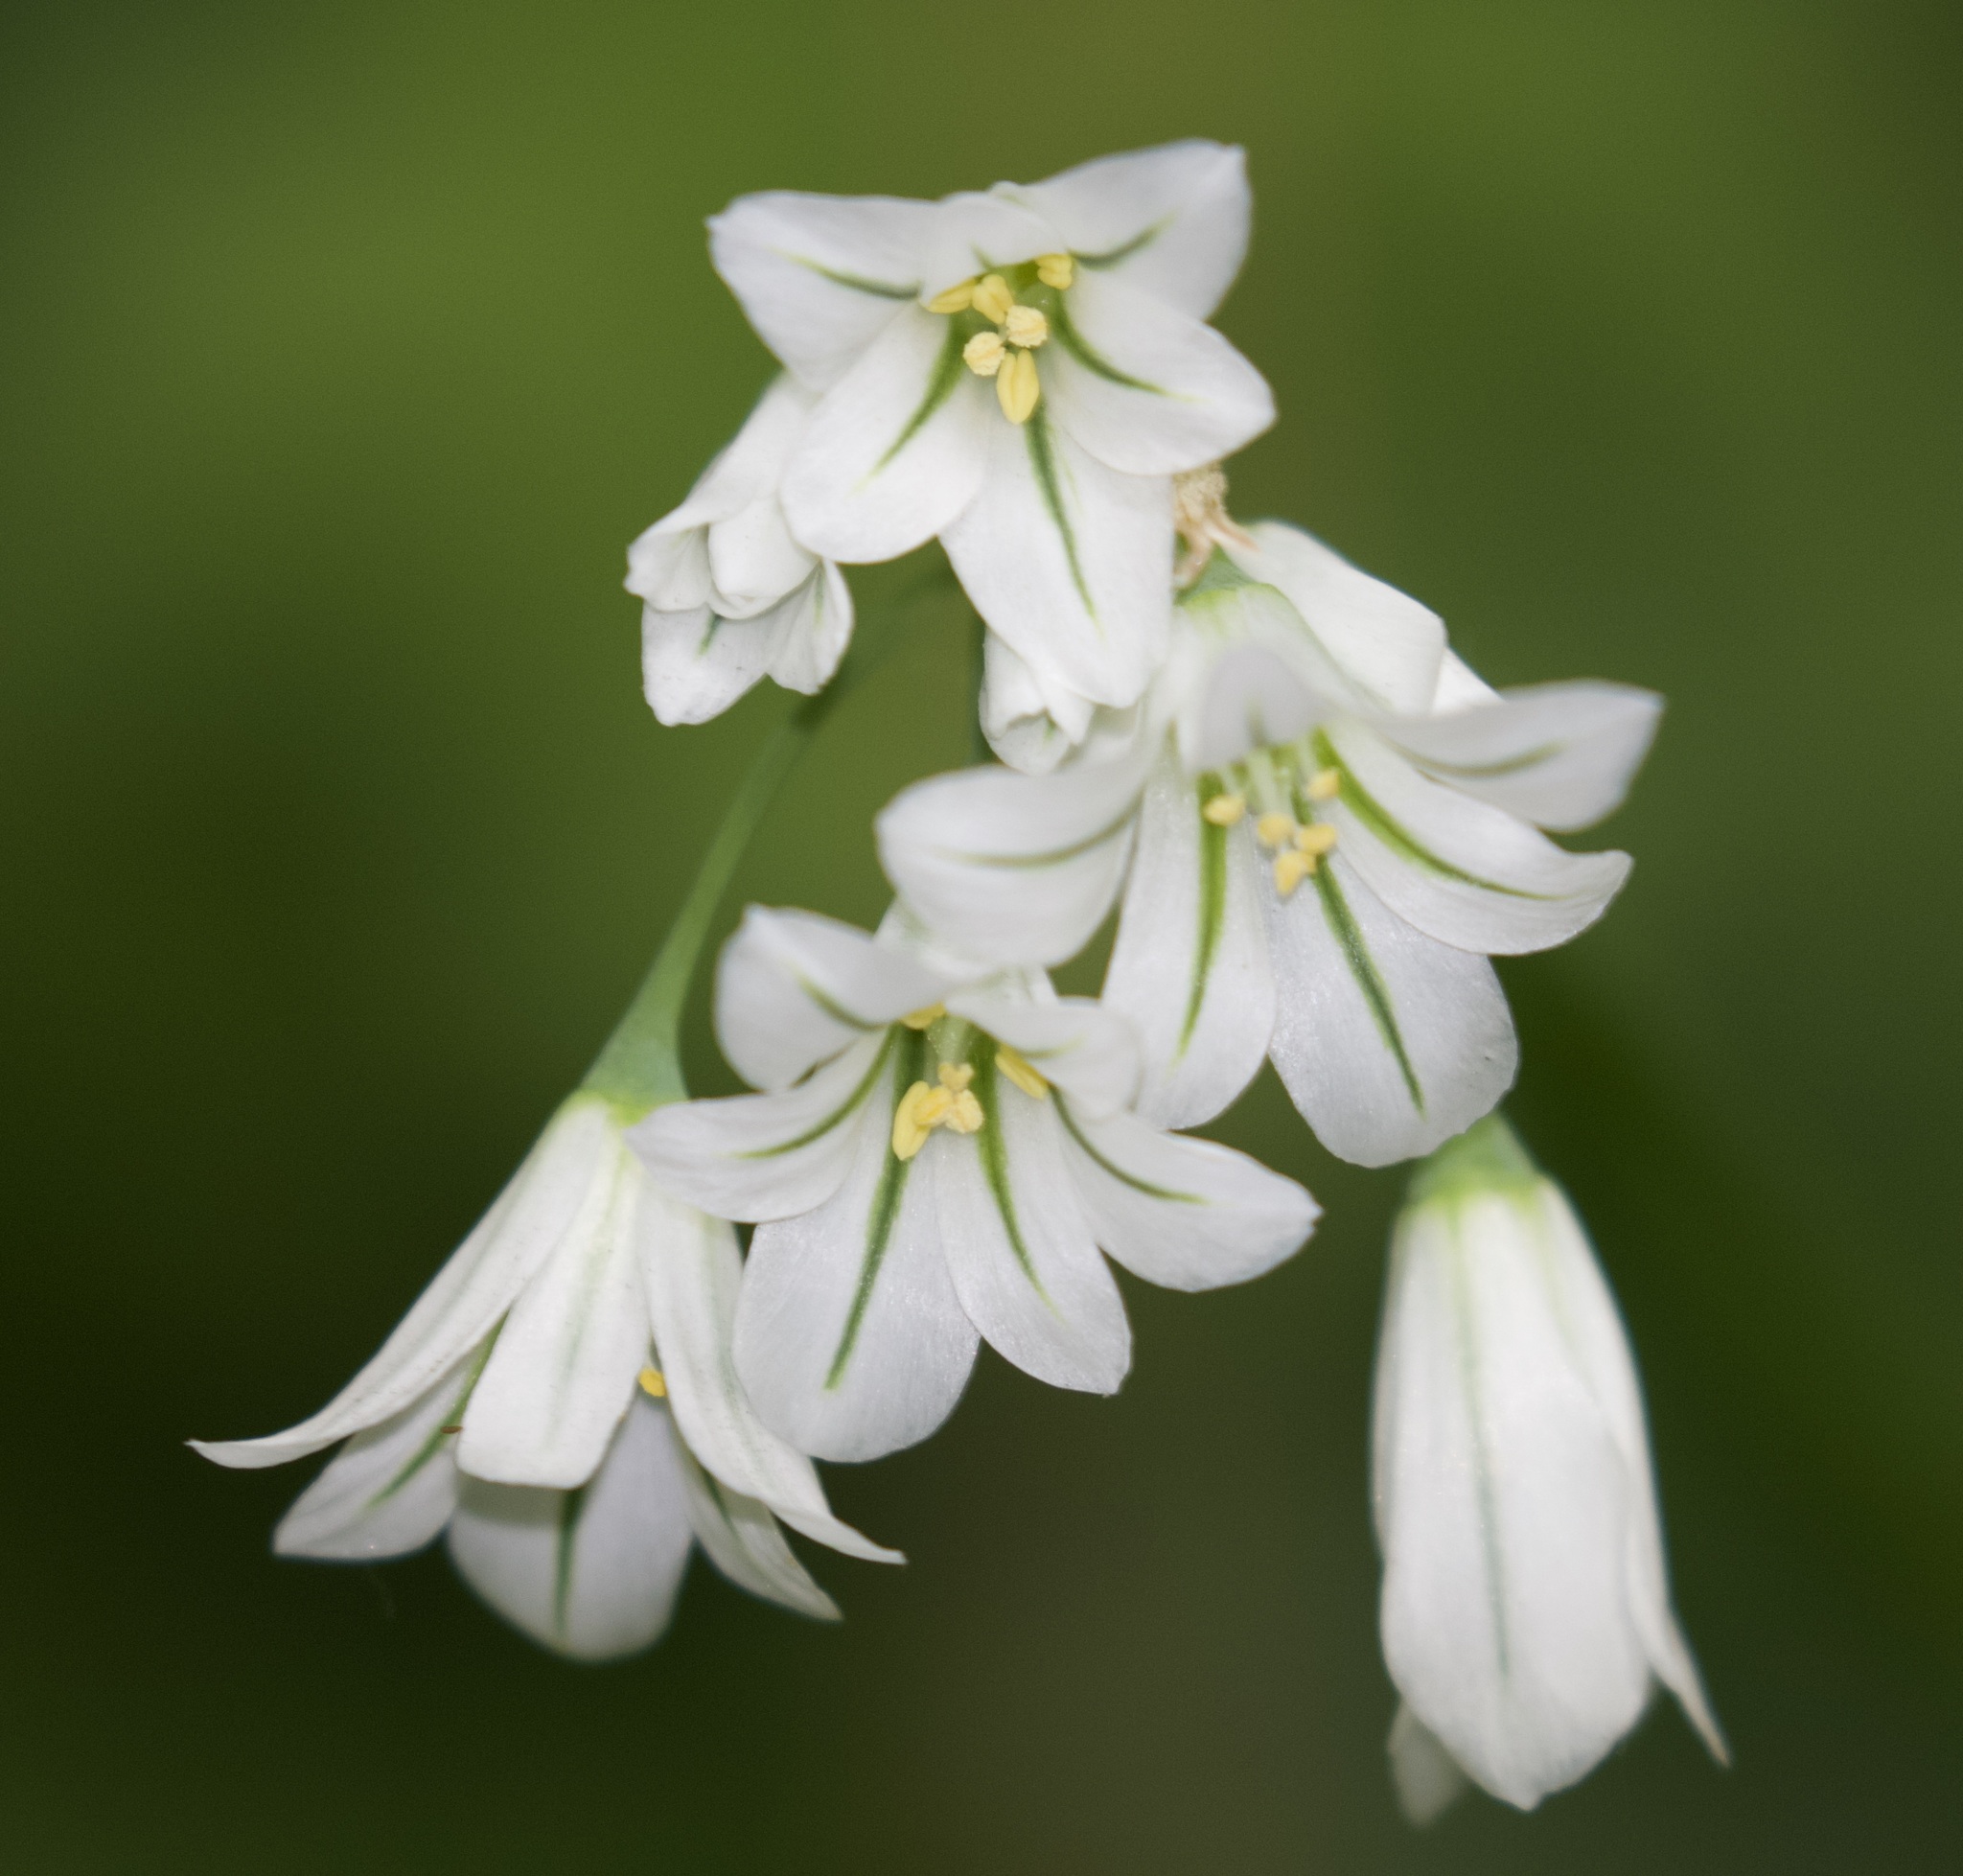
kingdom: Plantae
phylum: Tracheophyta
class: Liliopsida
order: Asparagales
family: Amaryllidaceae
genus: Allium
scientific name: Allium triquetrum
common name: Three-cornered garlic
